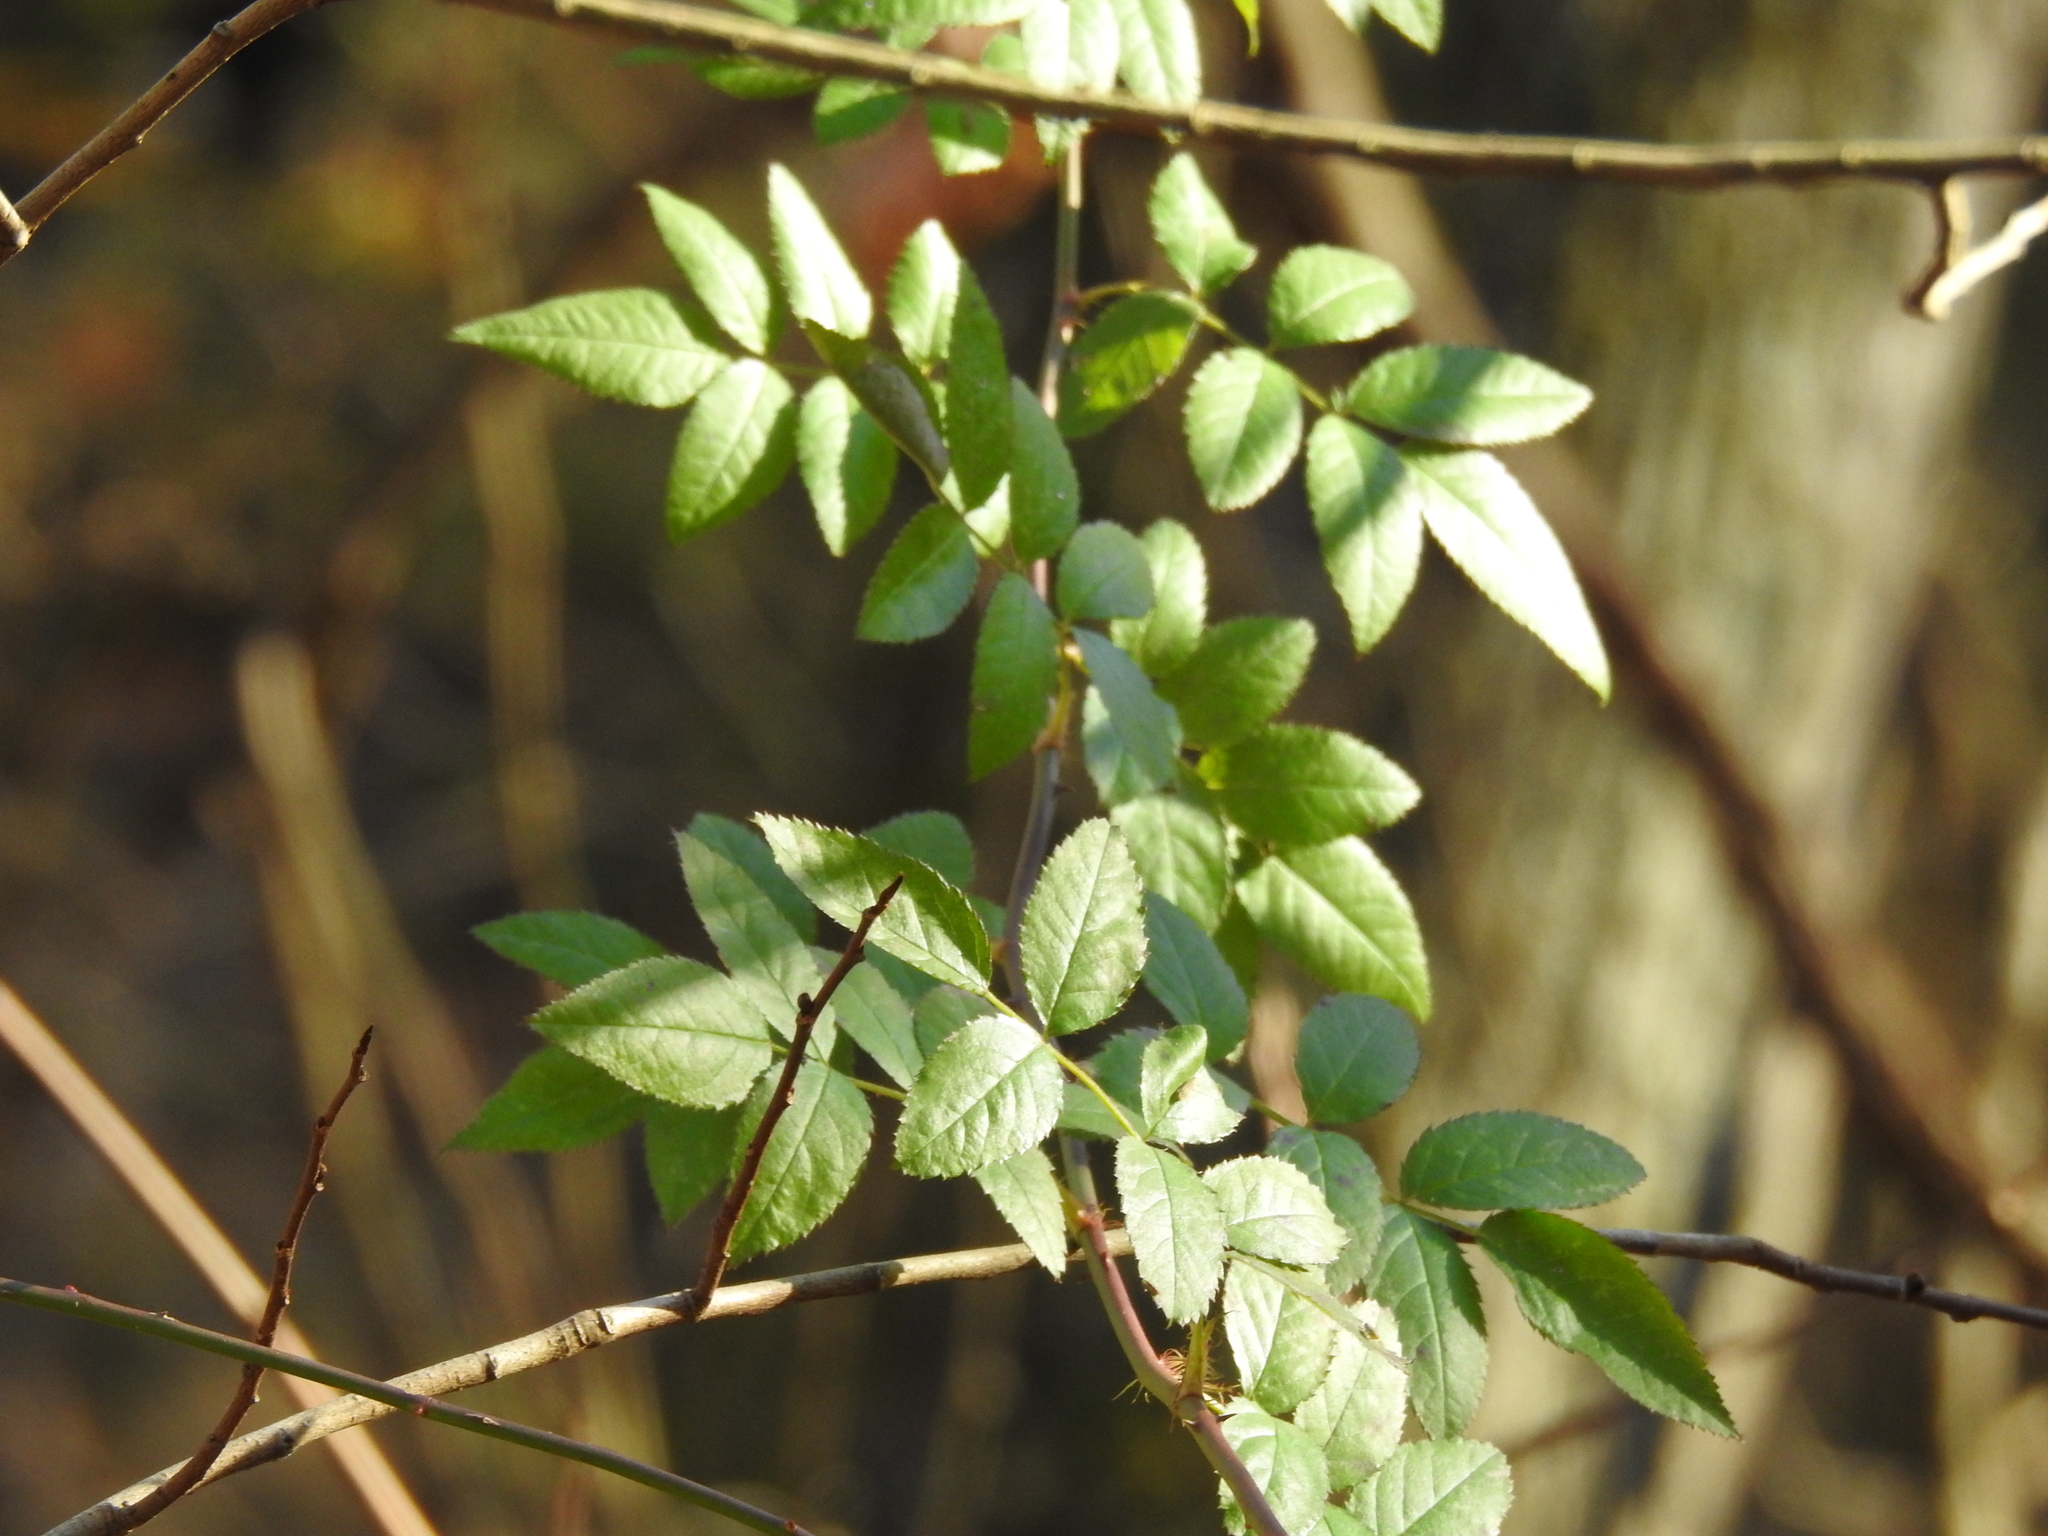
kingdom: Plantae
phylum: Tracheophyta
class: Magnoliopsida
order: Rosales
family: Rosaceae
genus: Rosa
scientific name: Rosa multiflora
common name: Multiflora rose
